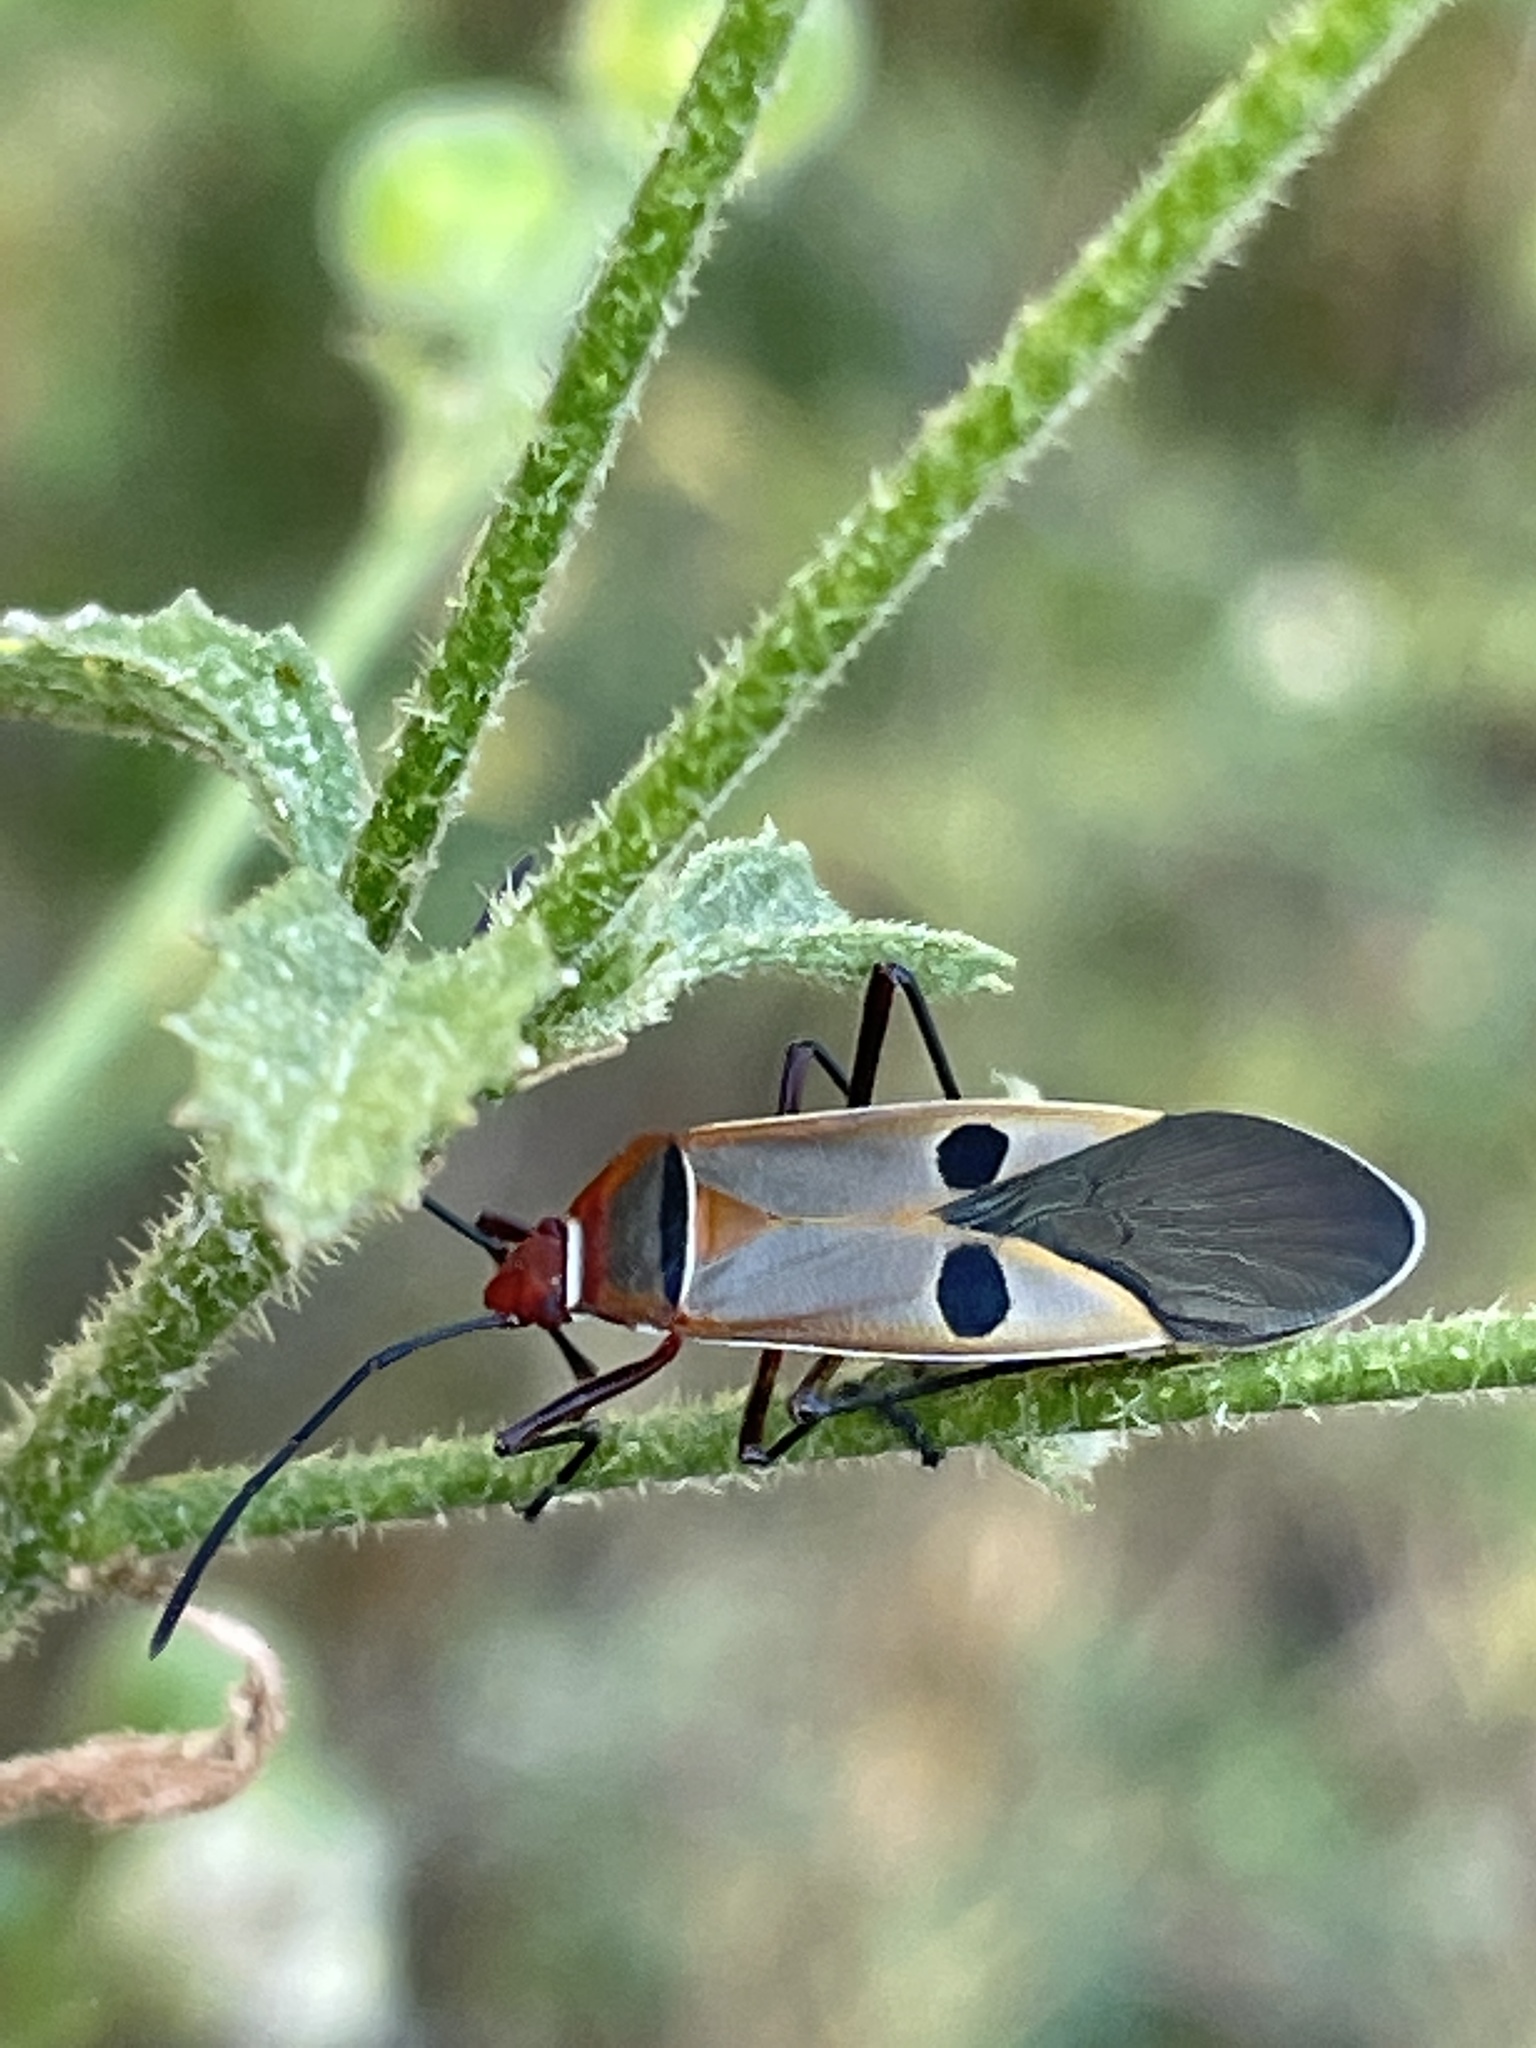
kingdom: Animalia
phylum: Arthropoda
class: Insecta
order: Hemiptera
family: Pyrrhocoridae
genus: Dysdercus
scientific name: Dysdercus superstitiosus
